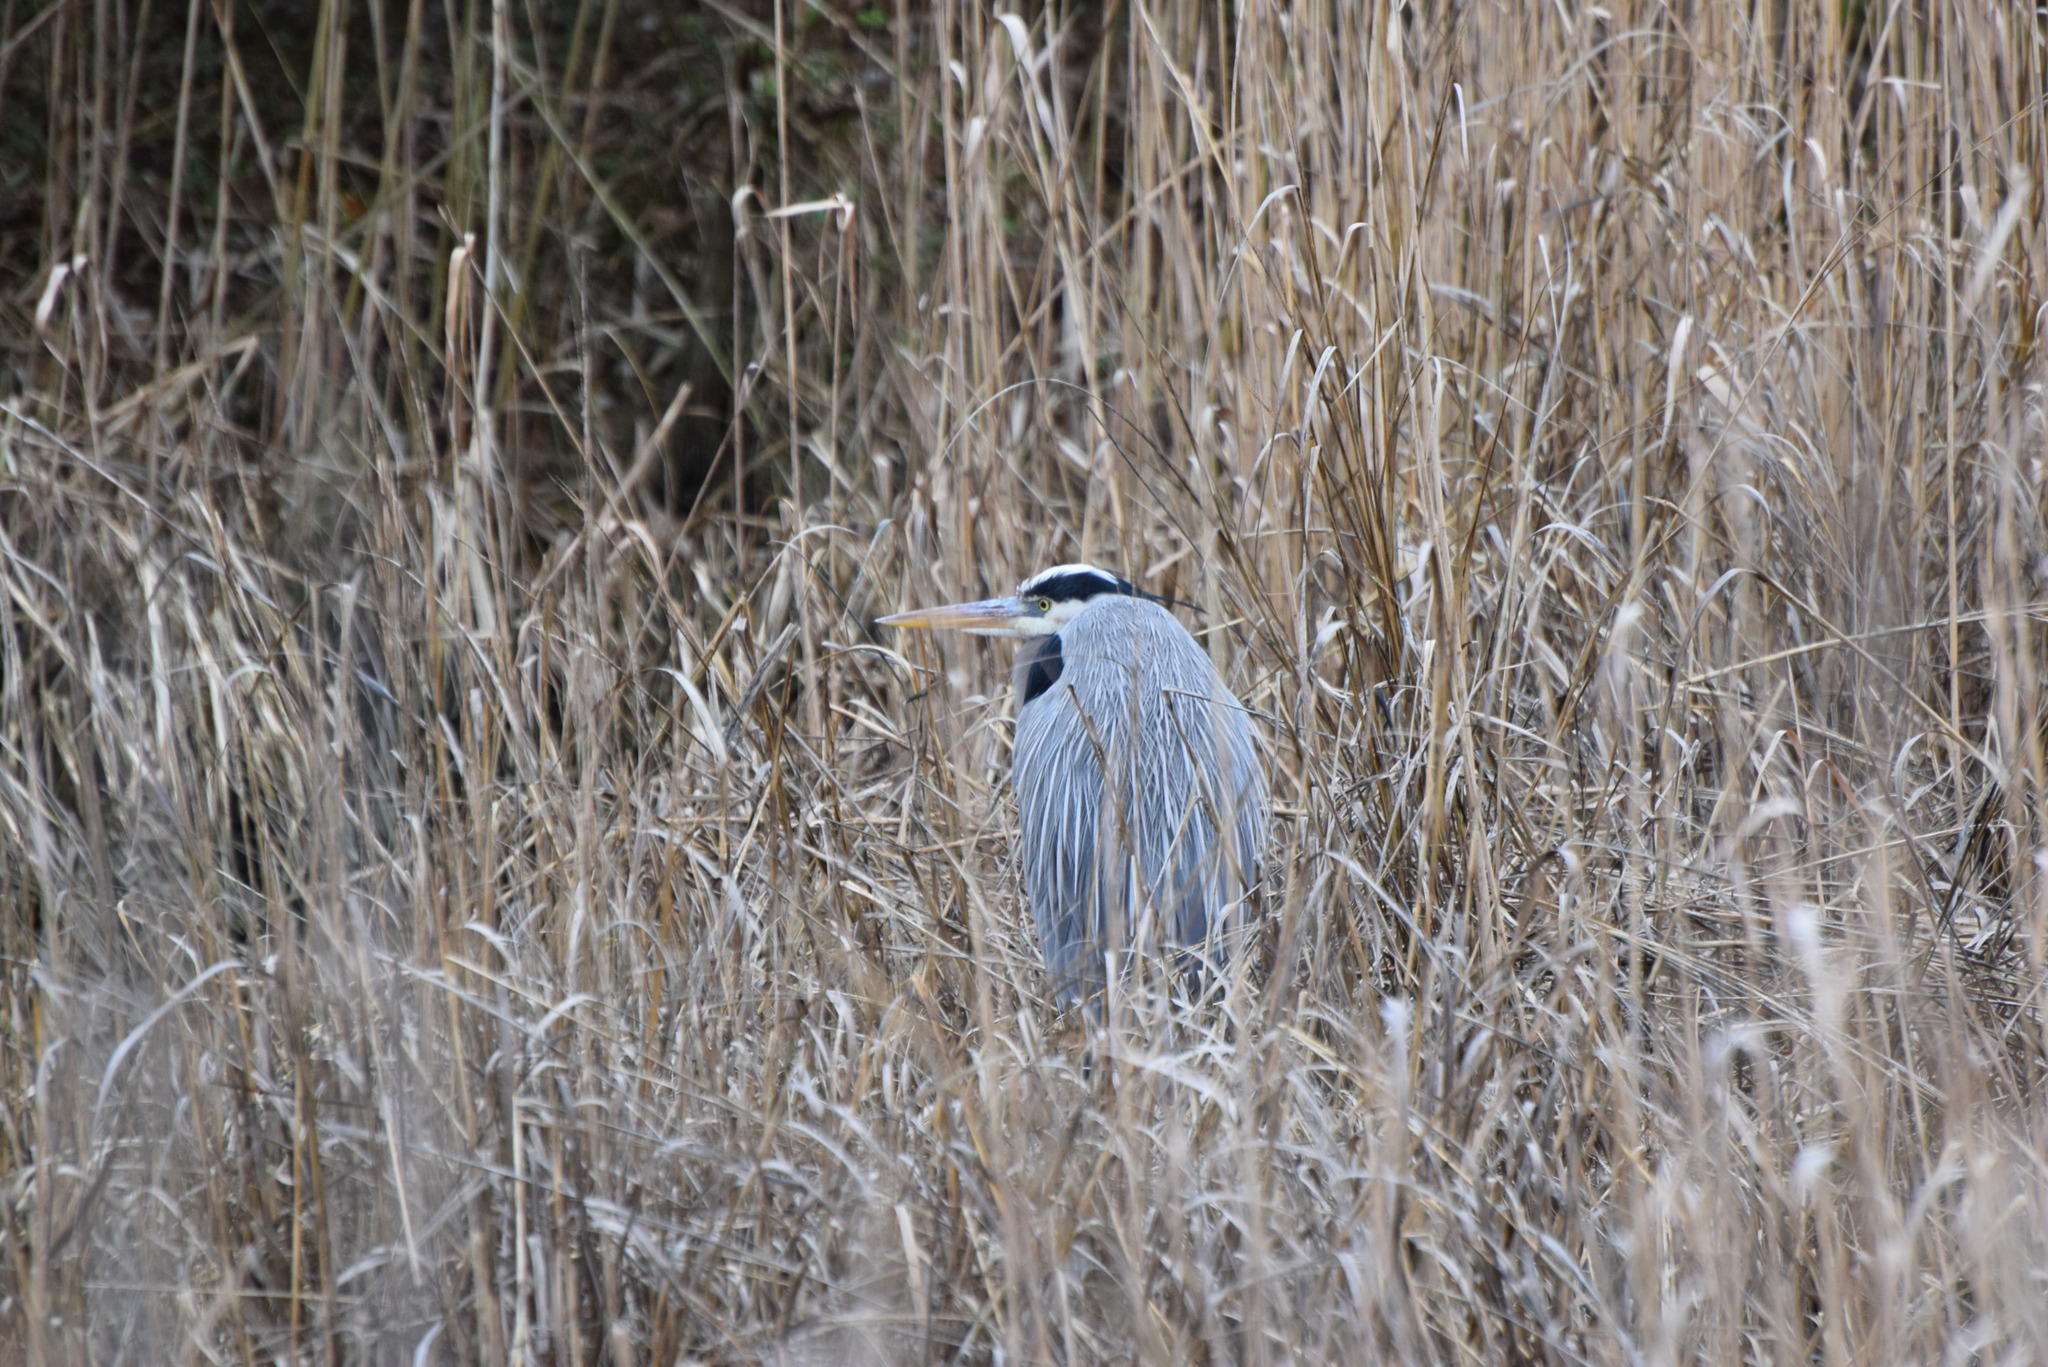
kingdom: Animalia
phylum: Chordata
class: Aves
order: Pelecaniformes
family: Ardeidae
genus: Ardea
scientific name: Ardea herodias
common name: Great blue heron
